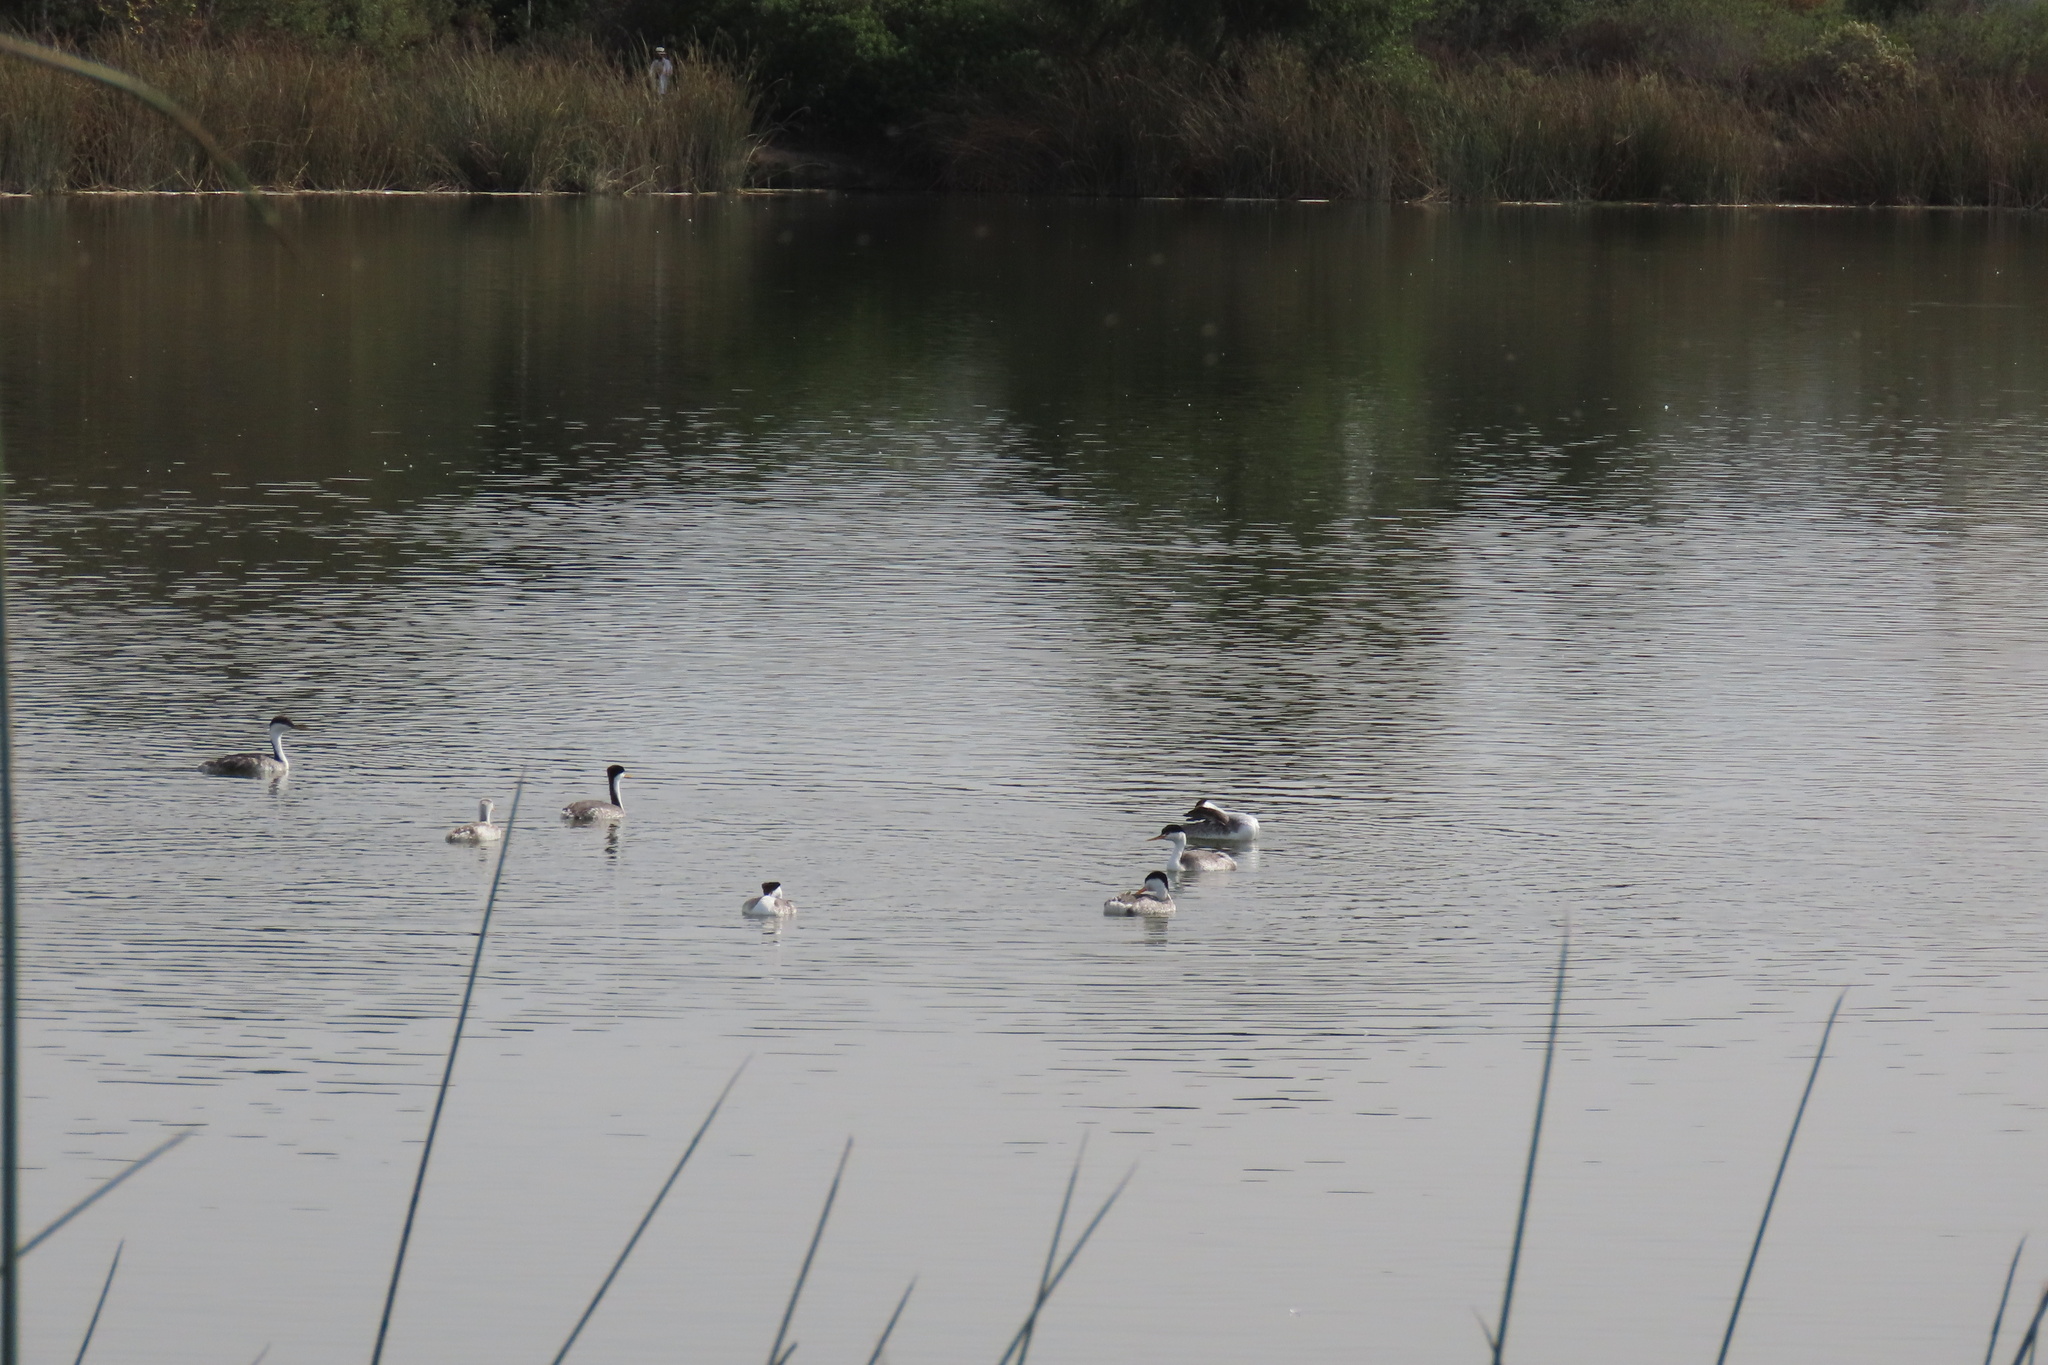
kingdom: Animalia
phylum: Chordata
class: Aves
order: Podicipediformes
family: Podicipedidae
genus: Aechmophorus
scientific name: Aechmophorus clarkii
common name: Clark's grebe
